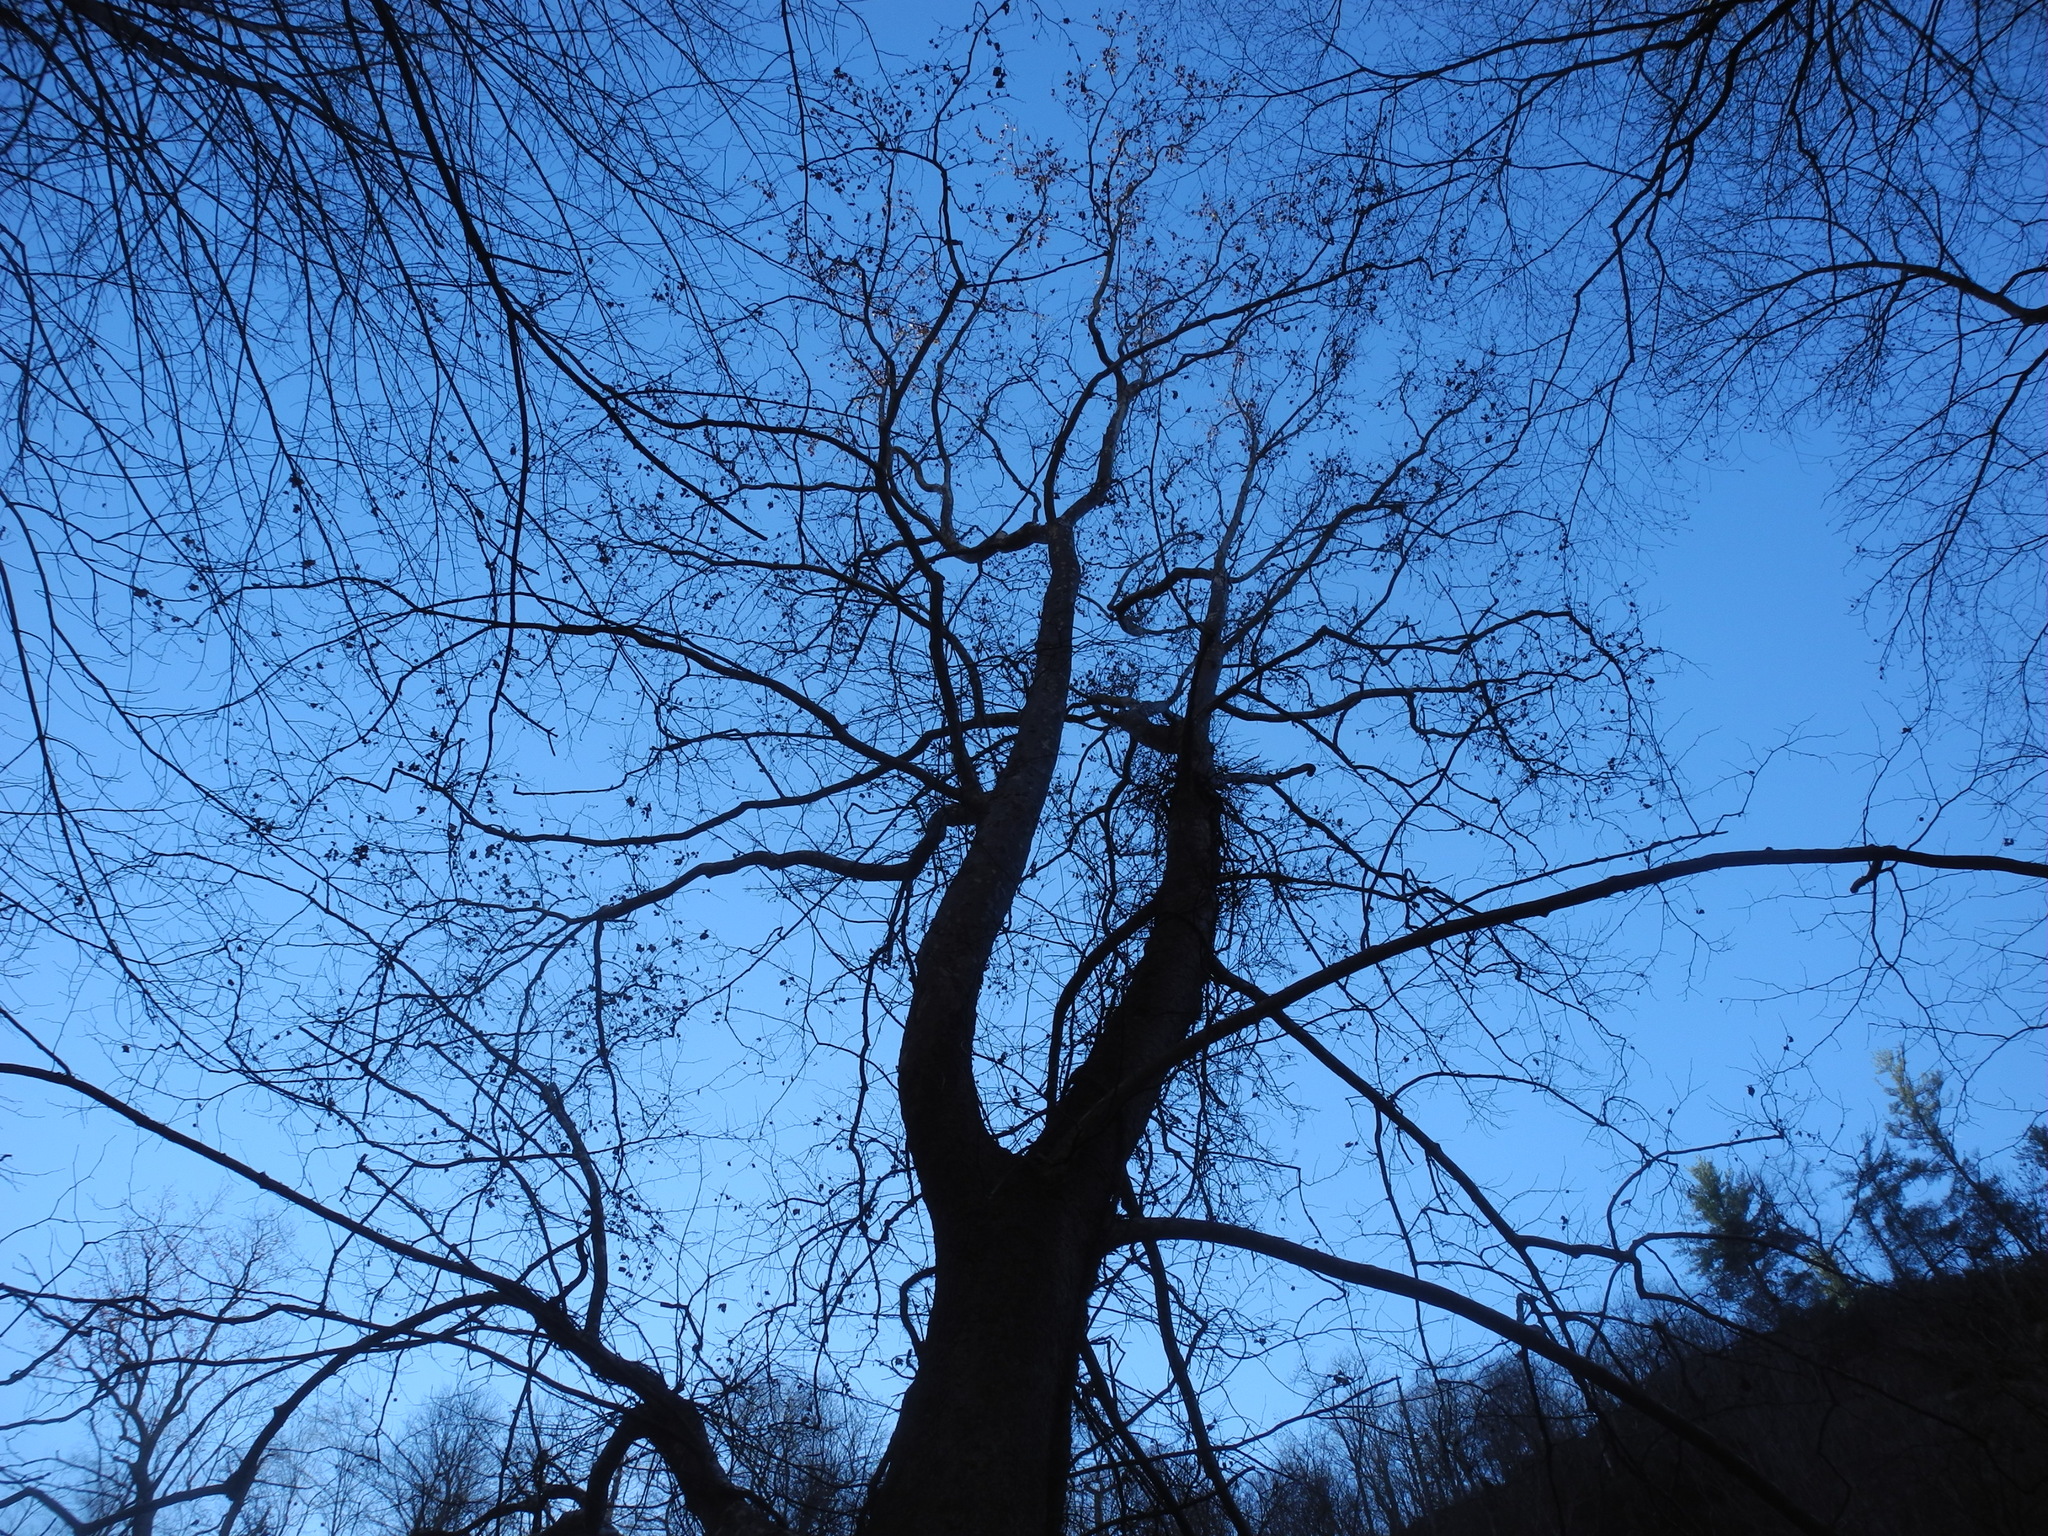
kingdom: Plantae
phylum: Tracheophyta
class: Magnoliopsida
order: Proteales
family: Platanaceae
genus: Platanus
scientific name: Platanus occidentalis
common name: American sycamore
